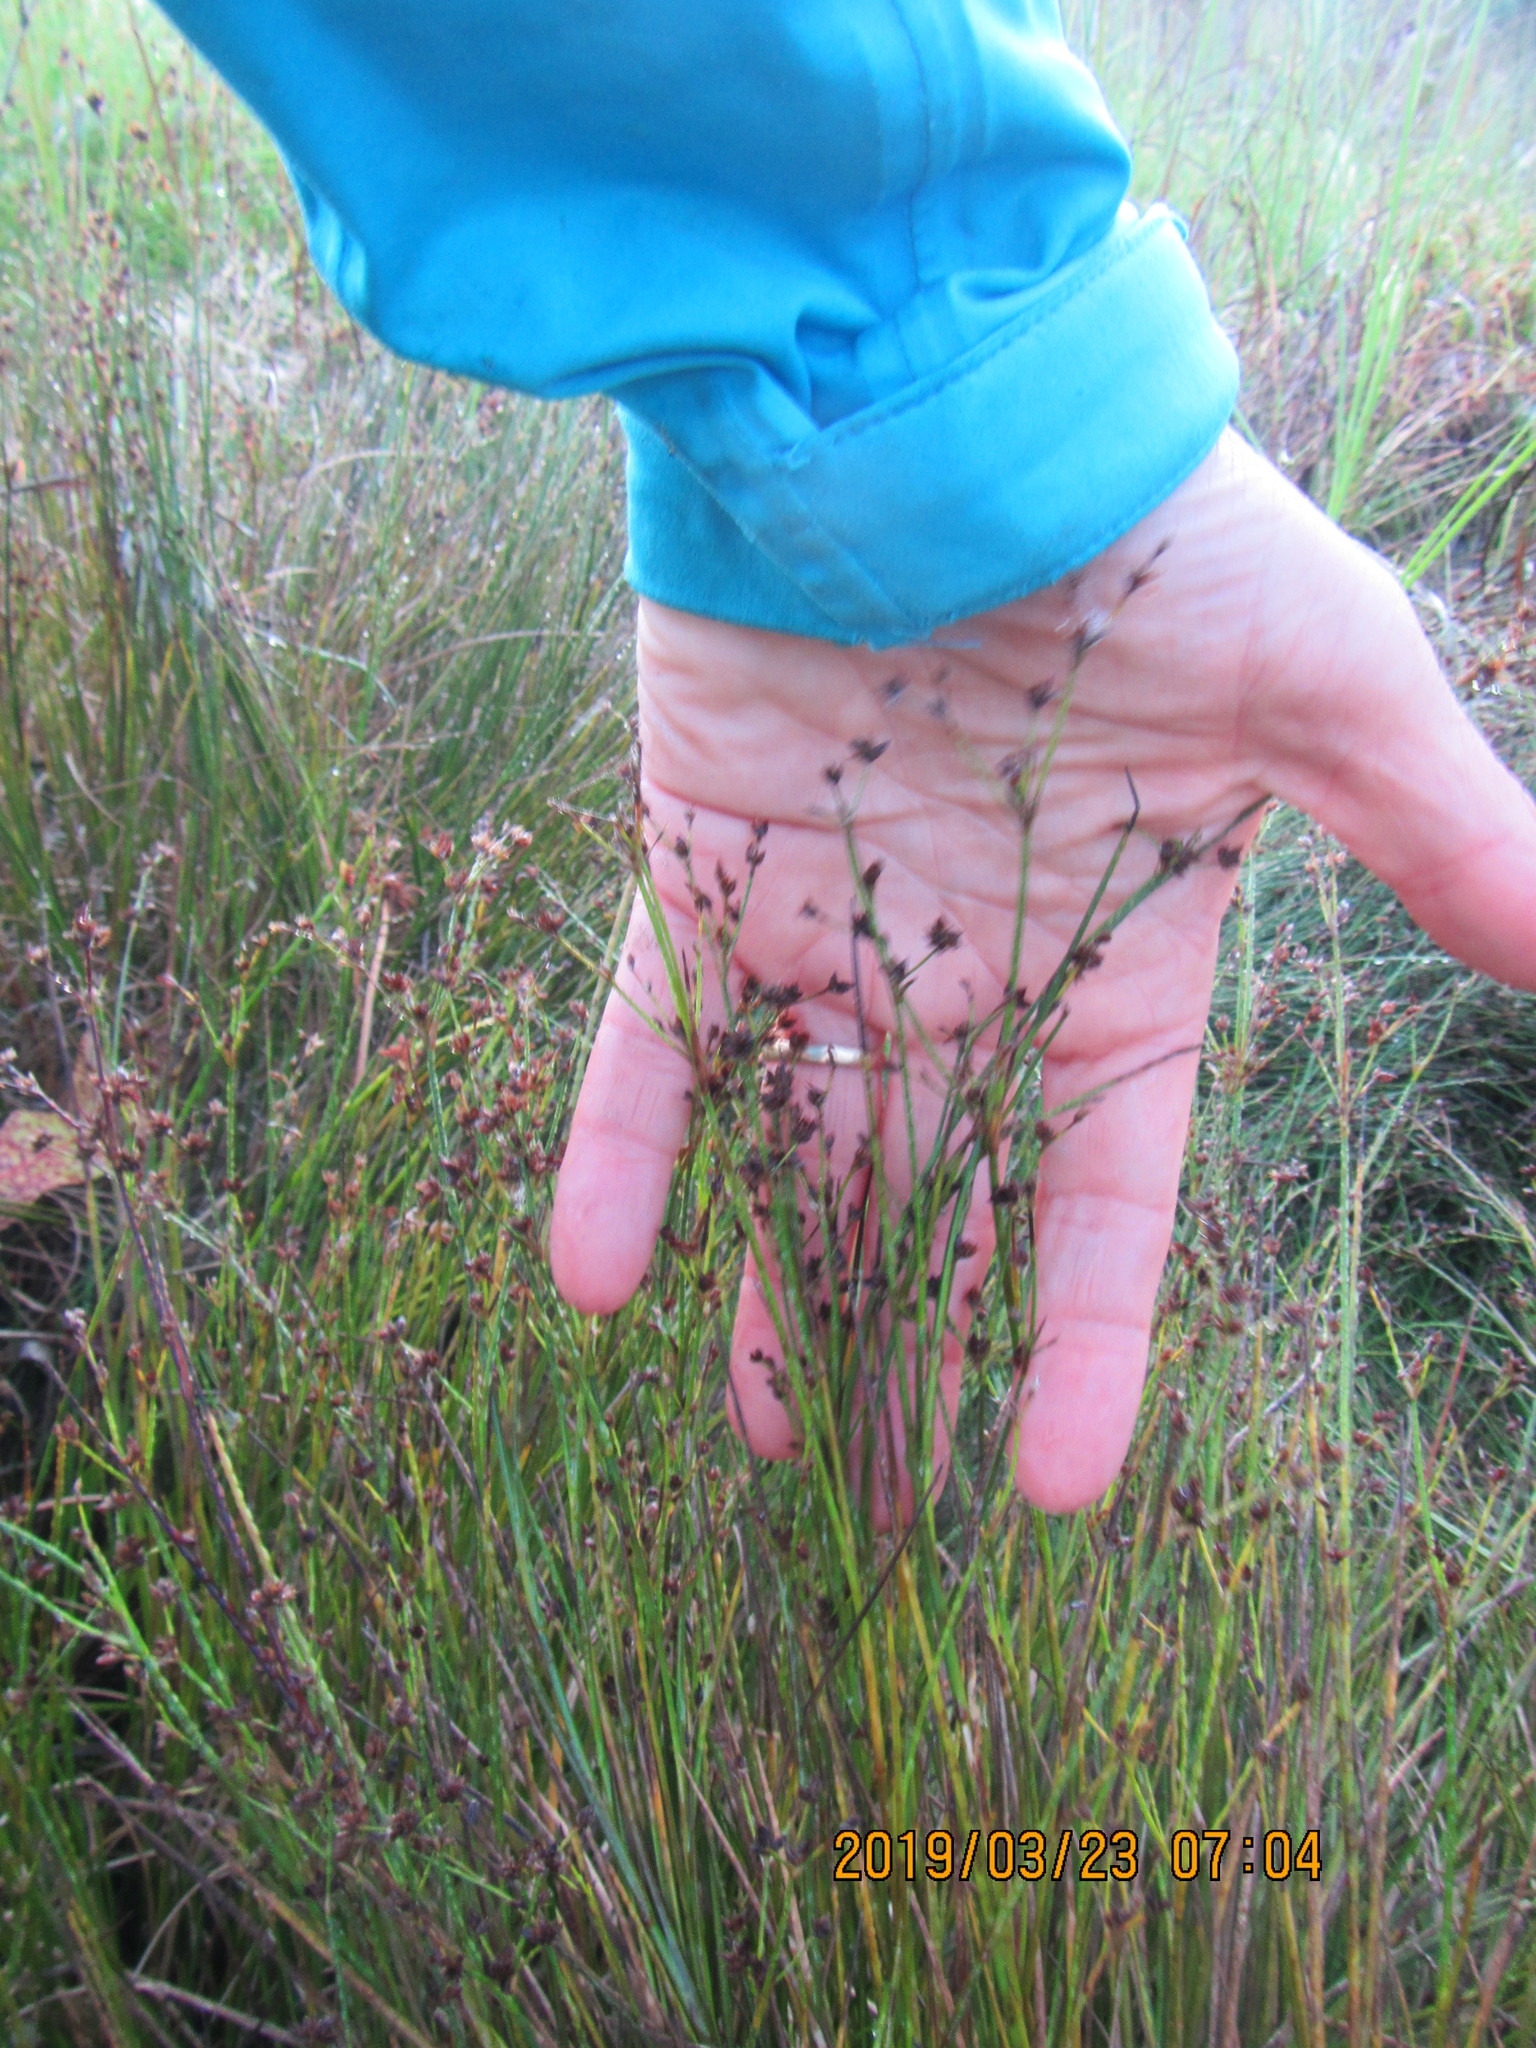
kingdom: Plantae
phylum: Tracheophyta
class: Liliopsida
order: Poales
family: Juncaceae
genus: Juncus
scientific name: Juncus articulatus
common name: Jointed rush
